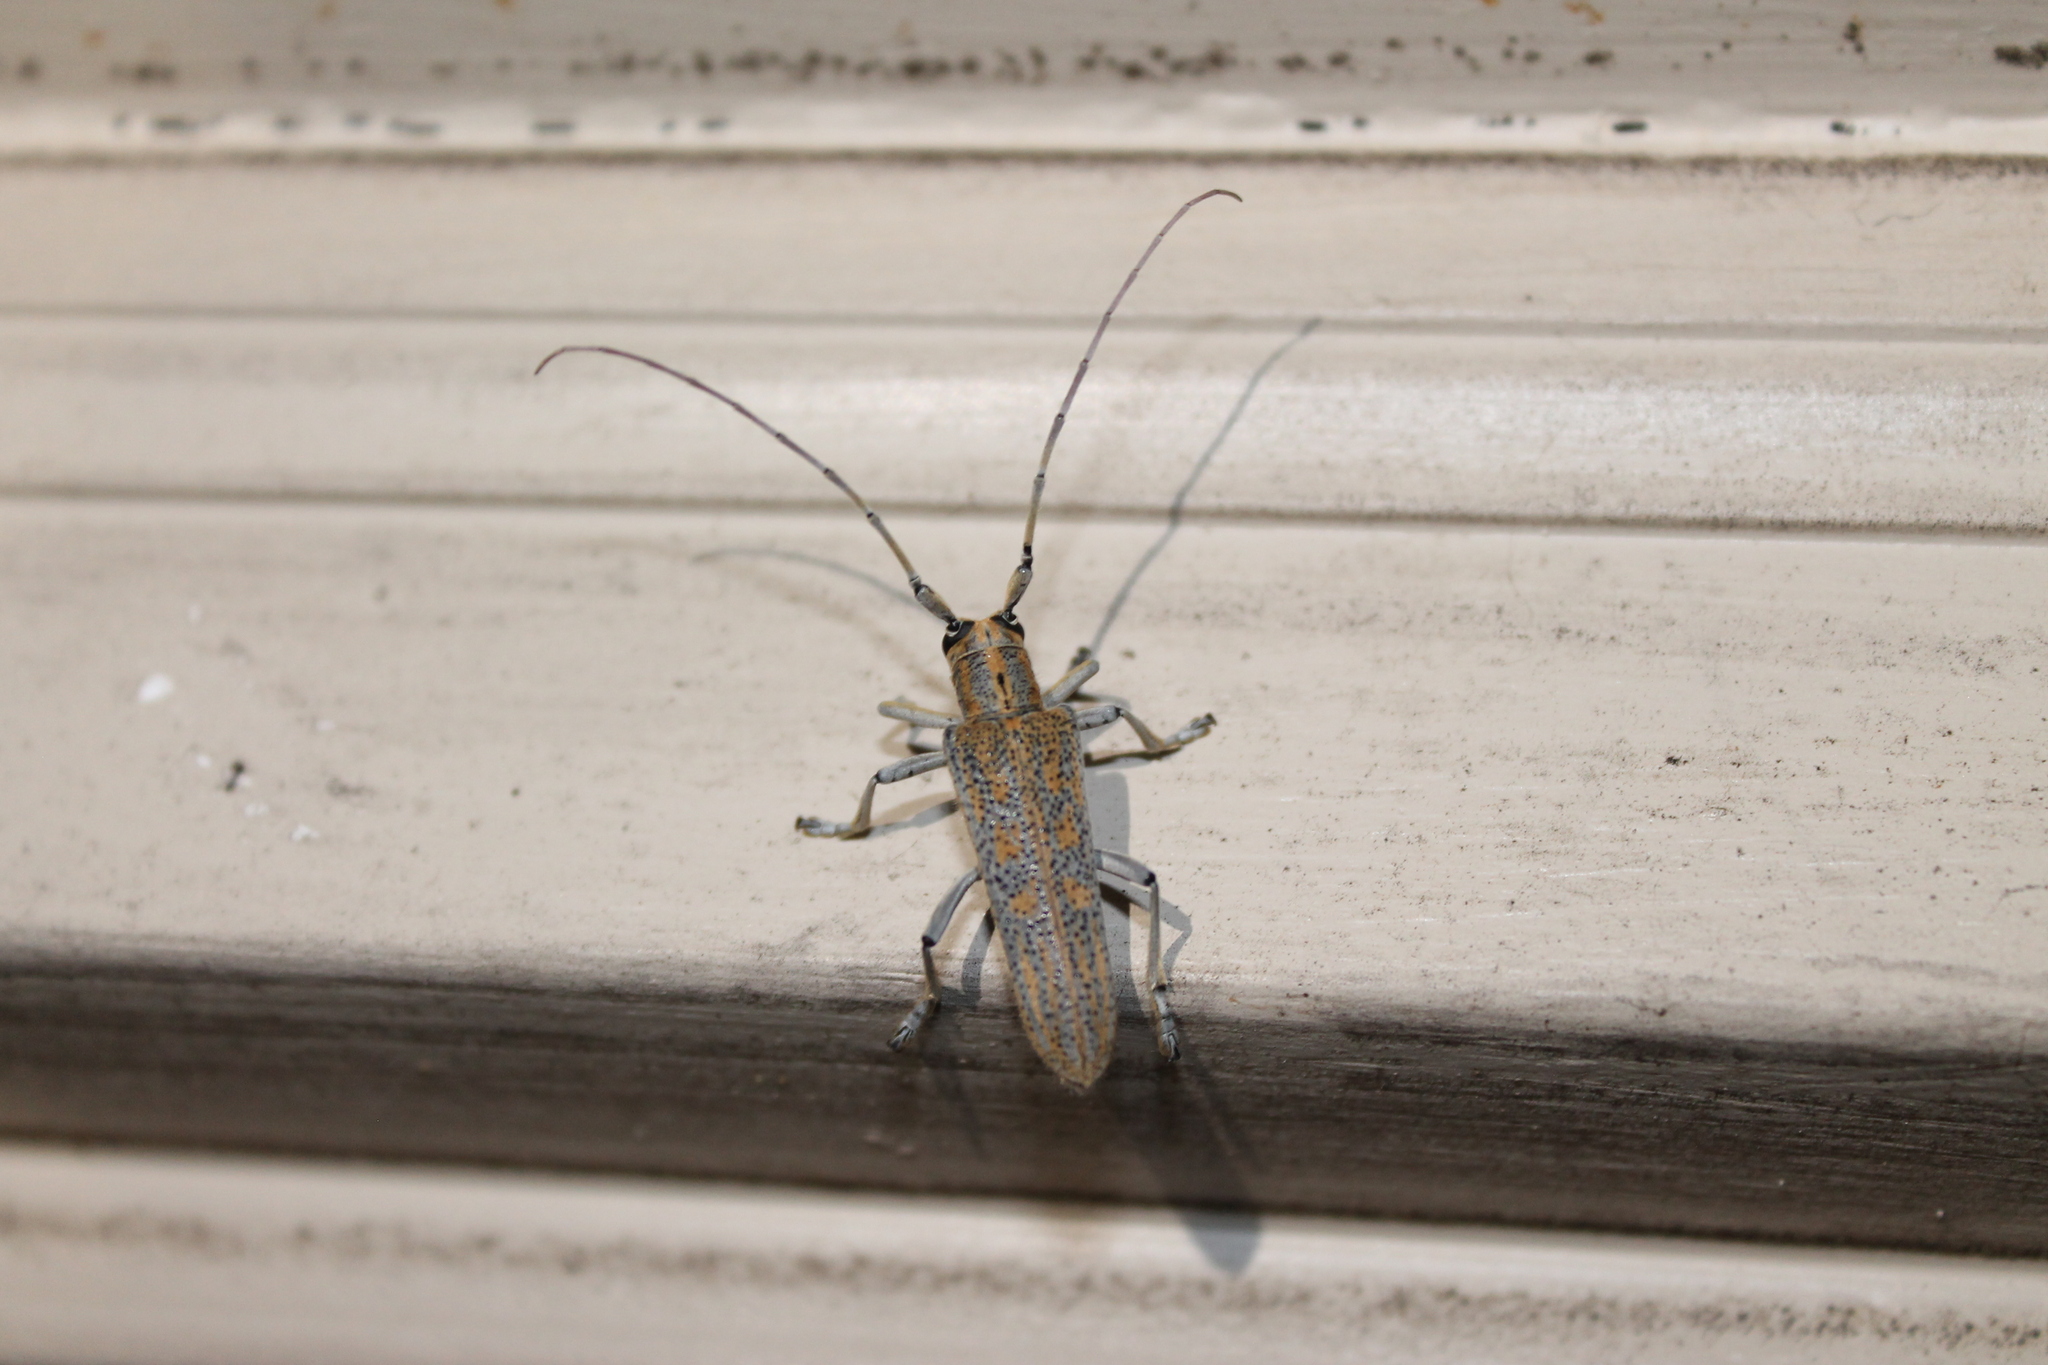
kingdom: Animalia
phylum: Arthropoda
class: Insecta
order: Coleoptera
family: Cerambycidae
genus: Saperda
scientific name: Saperda calcarata
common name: Poplar borer
